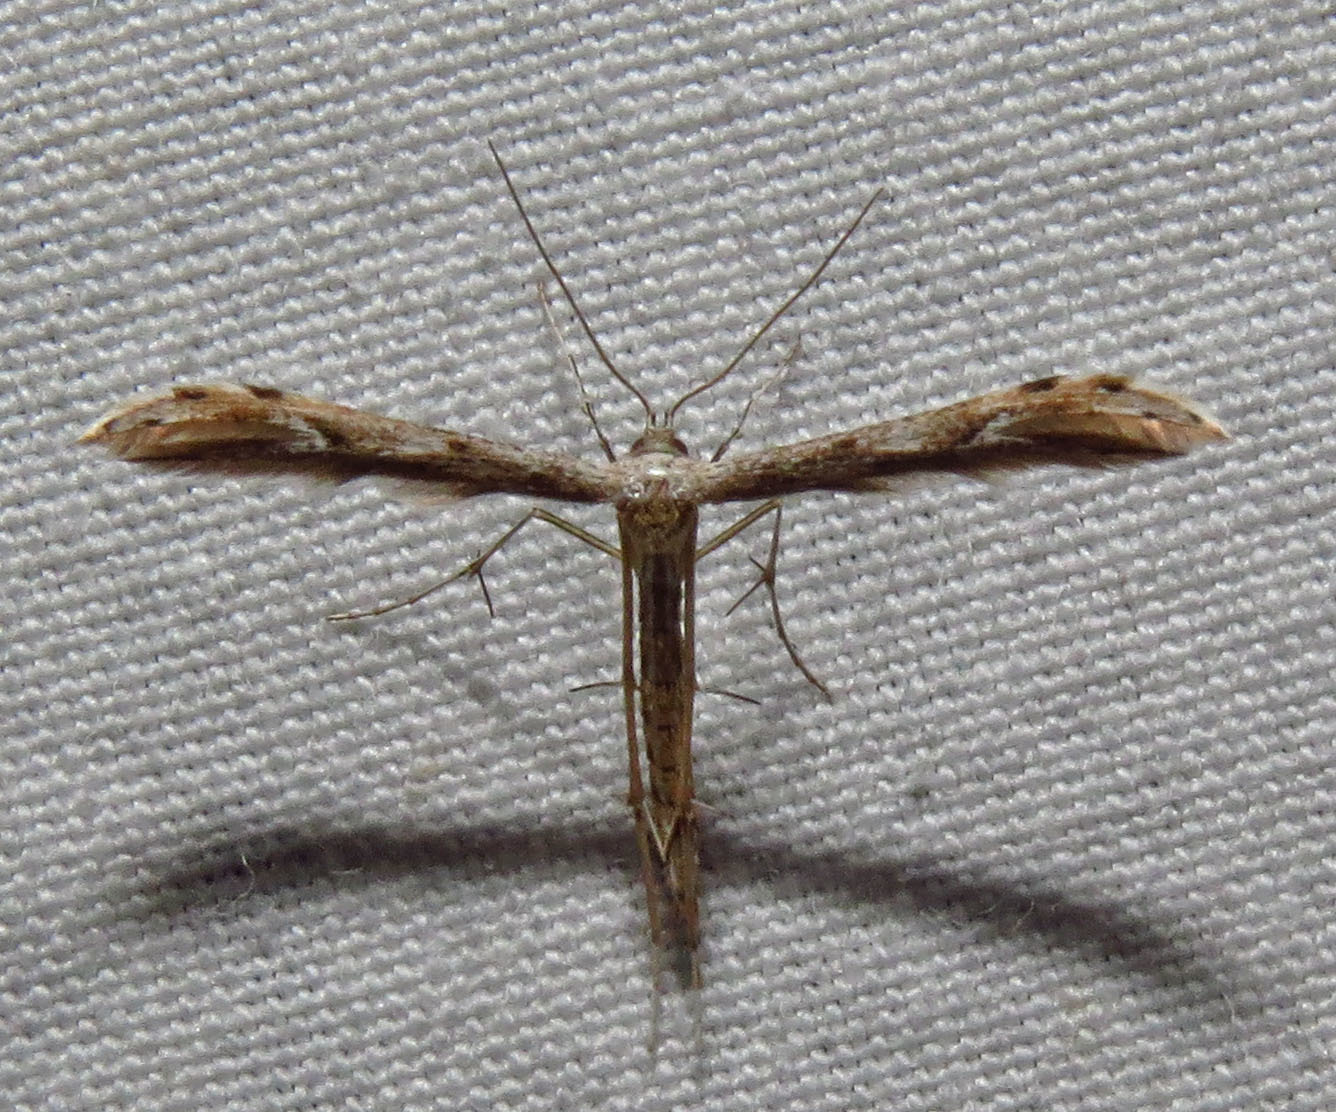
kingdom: Animalia
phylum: Arthropoda
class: Insecta
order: Lepidoptera
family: Pterophoridae
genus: Pselnophorus
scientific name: Pselnophorus belfragei
